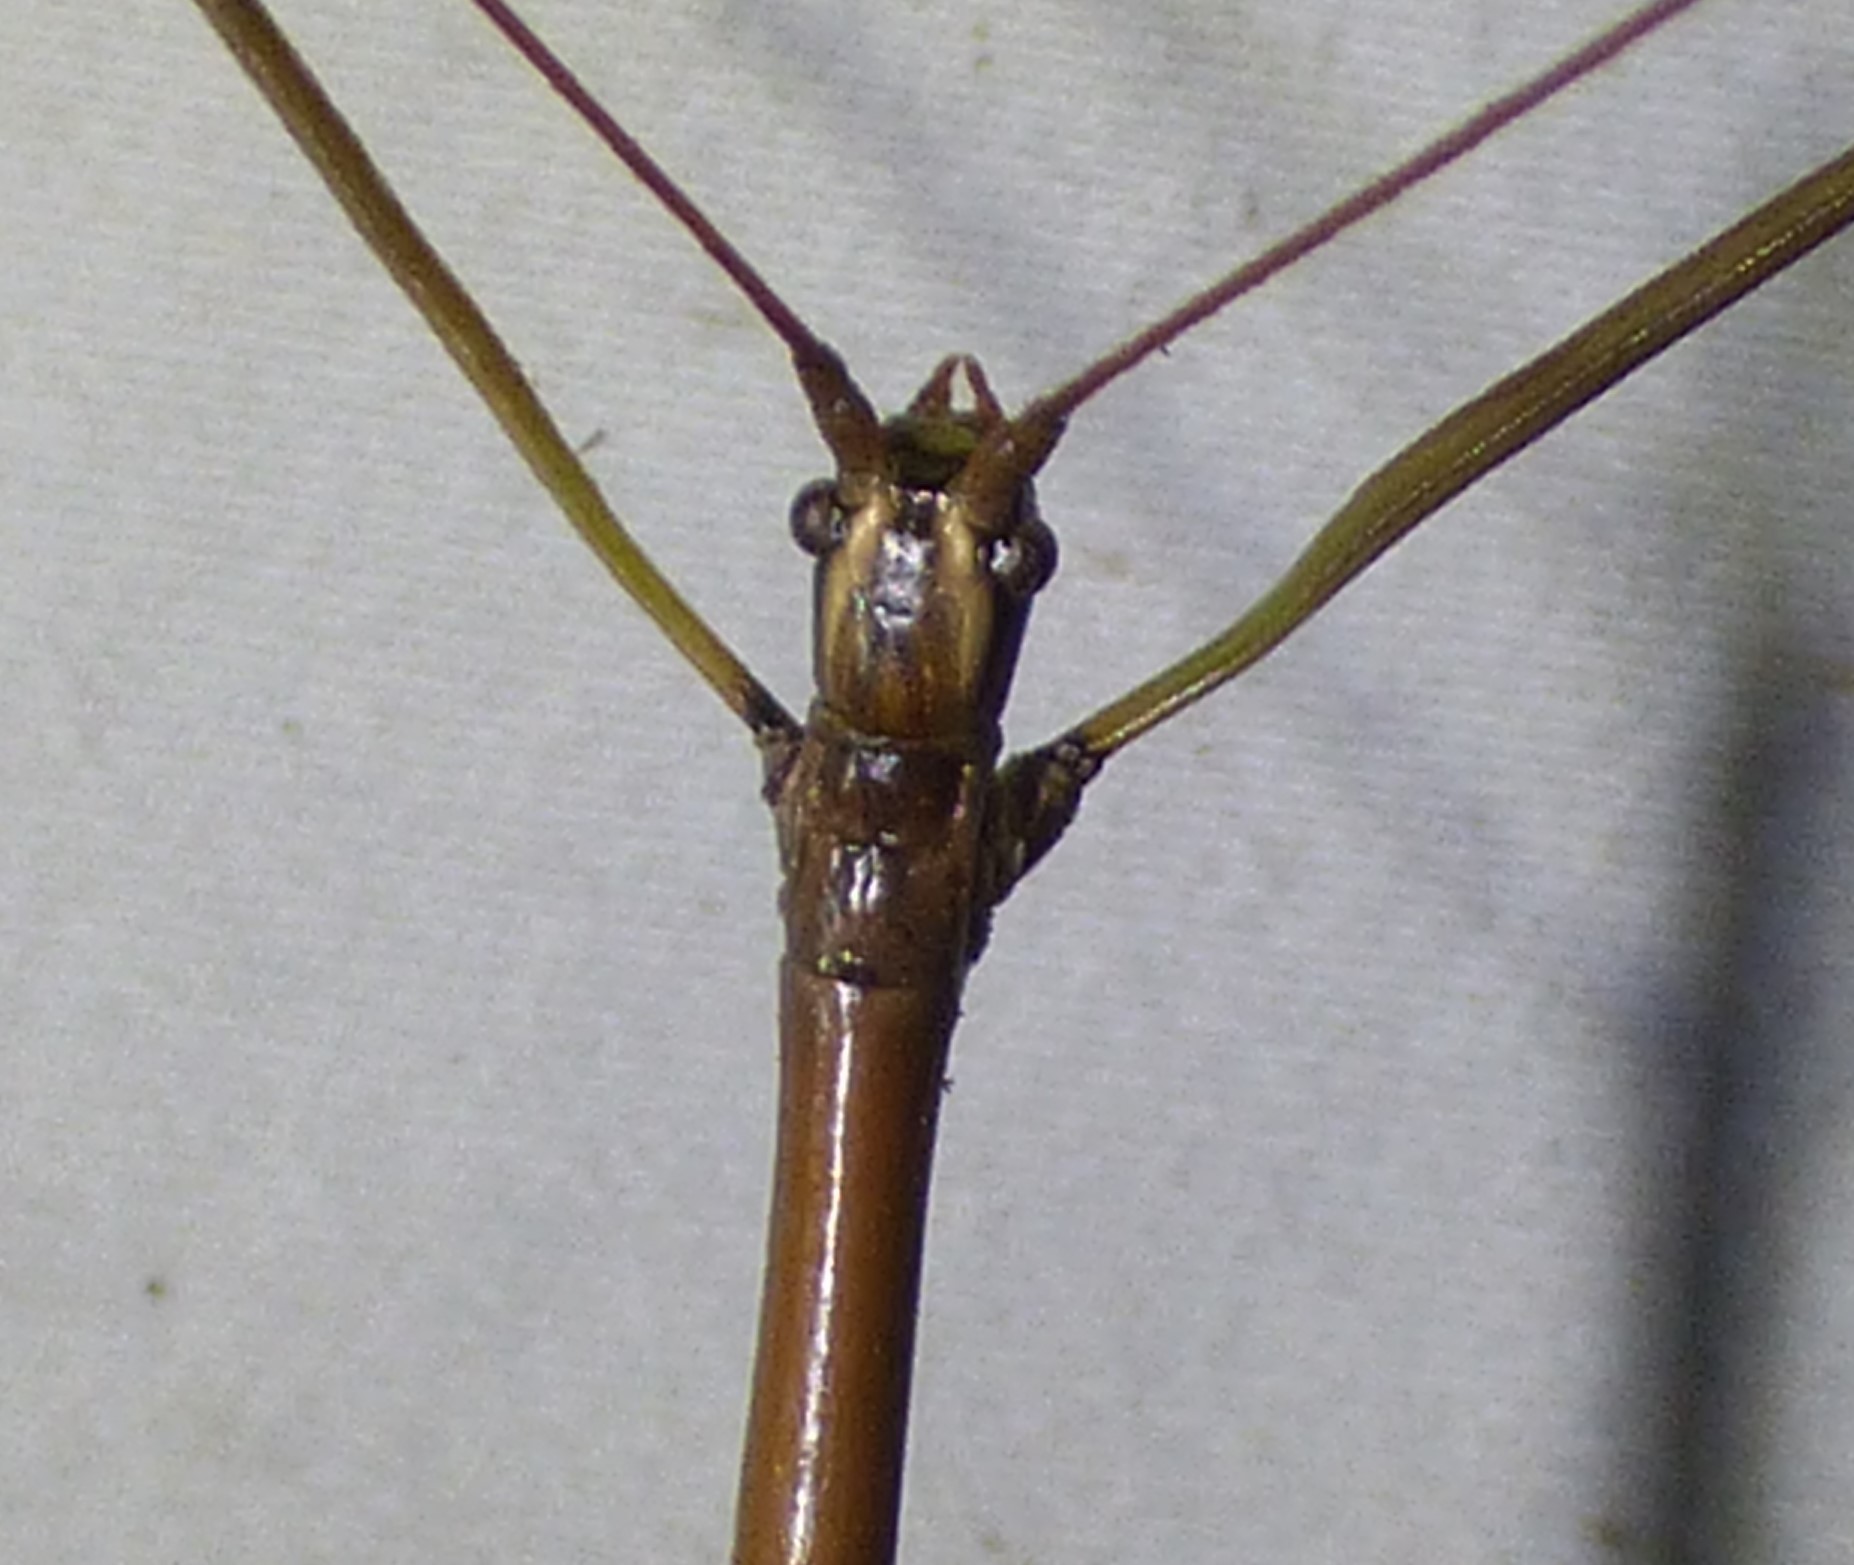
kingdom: Animalia
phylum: Arthropoda
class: Insecta
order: Phasmida
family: Diapheromeridae
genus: Diapheromera
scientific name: Diapheromera femorata
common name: Common american walkingstick
